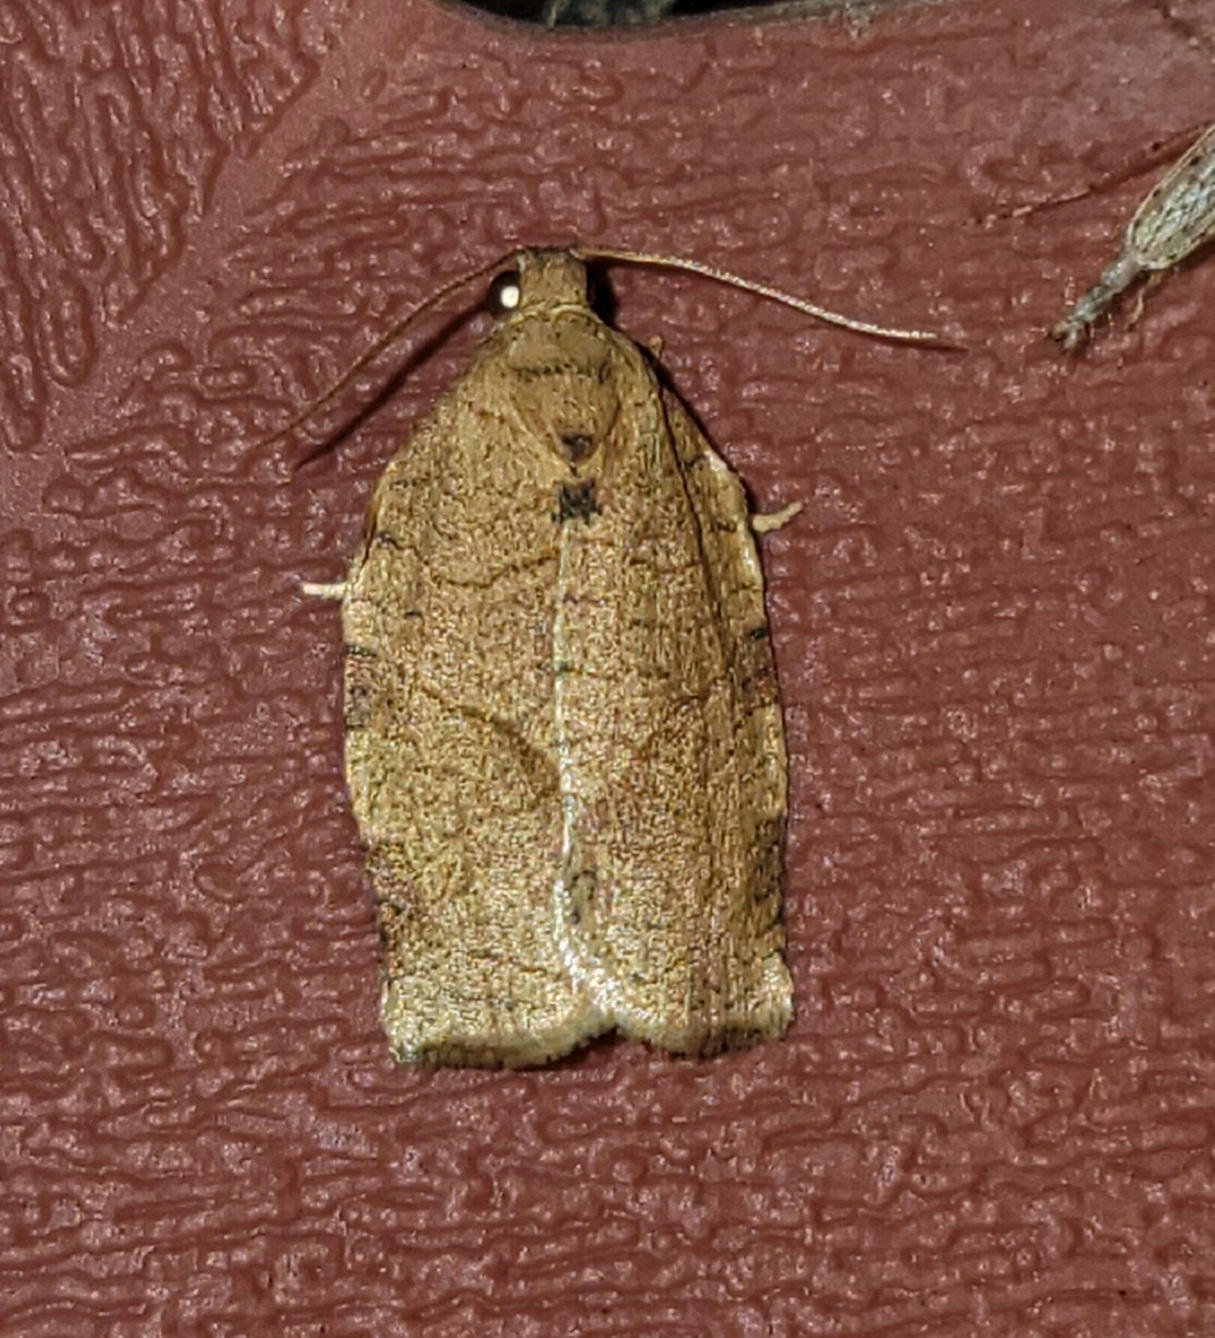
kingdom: Animalia
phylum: Arthropoda
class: Insecta
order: Lepidoptera
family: Tortricidae
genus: Choristoneura
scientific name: Choristoneura rosaceana
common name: Oblique-banded leafroller moth
